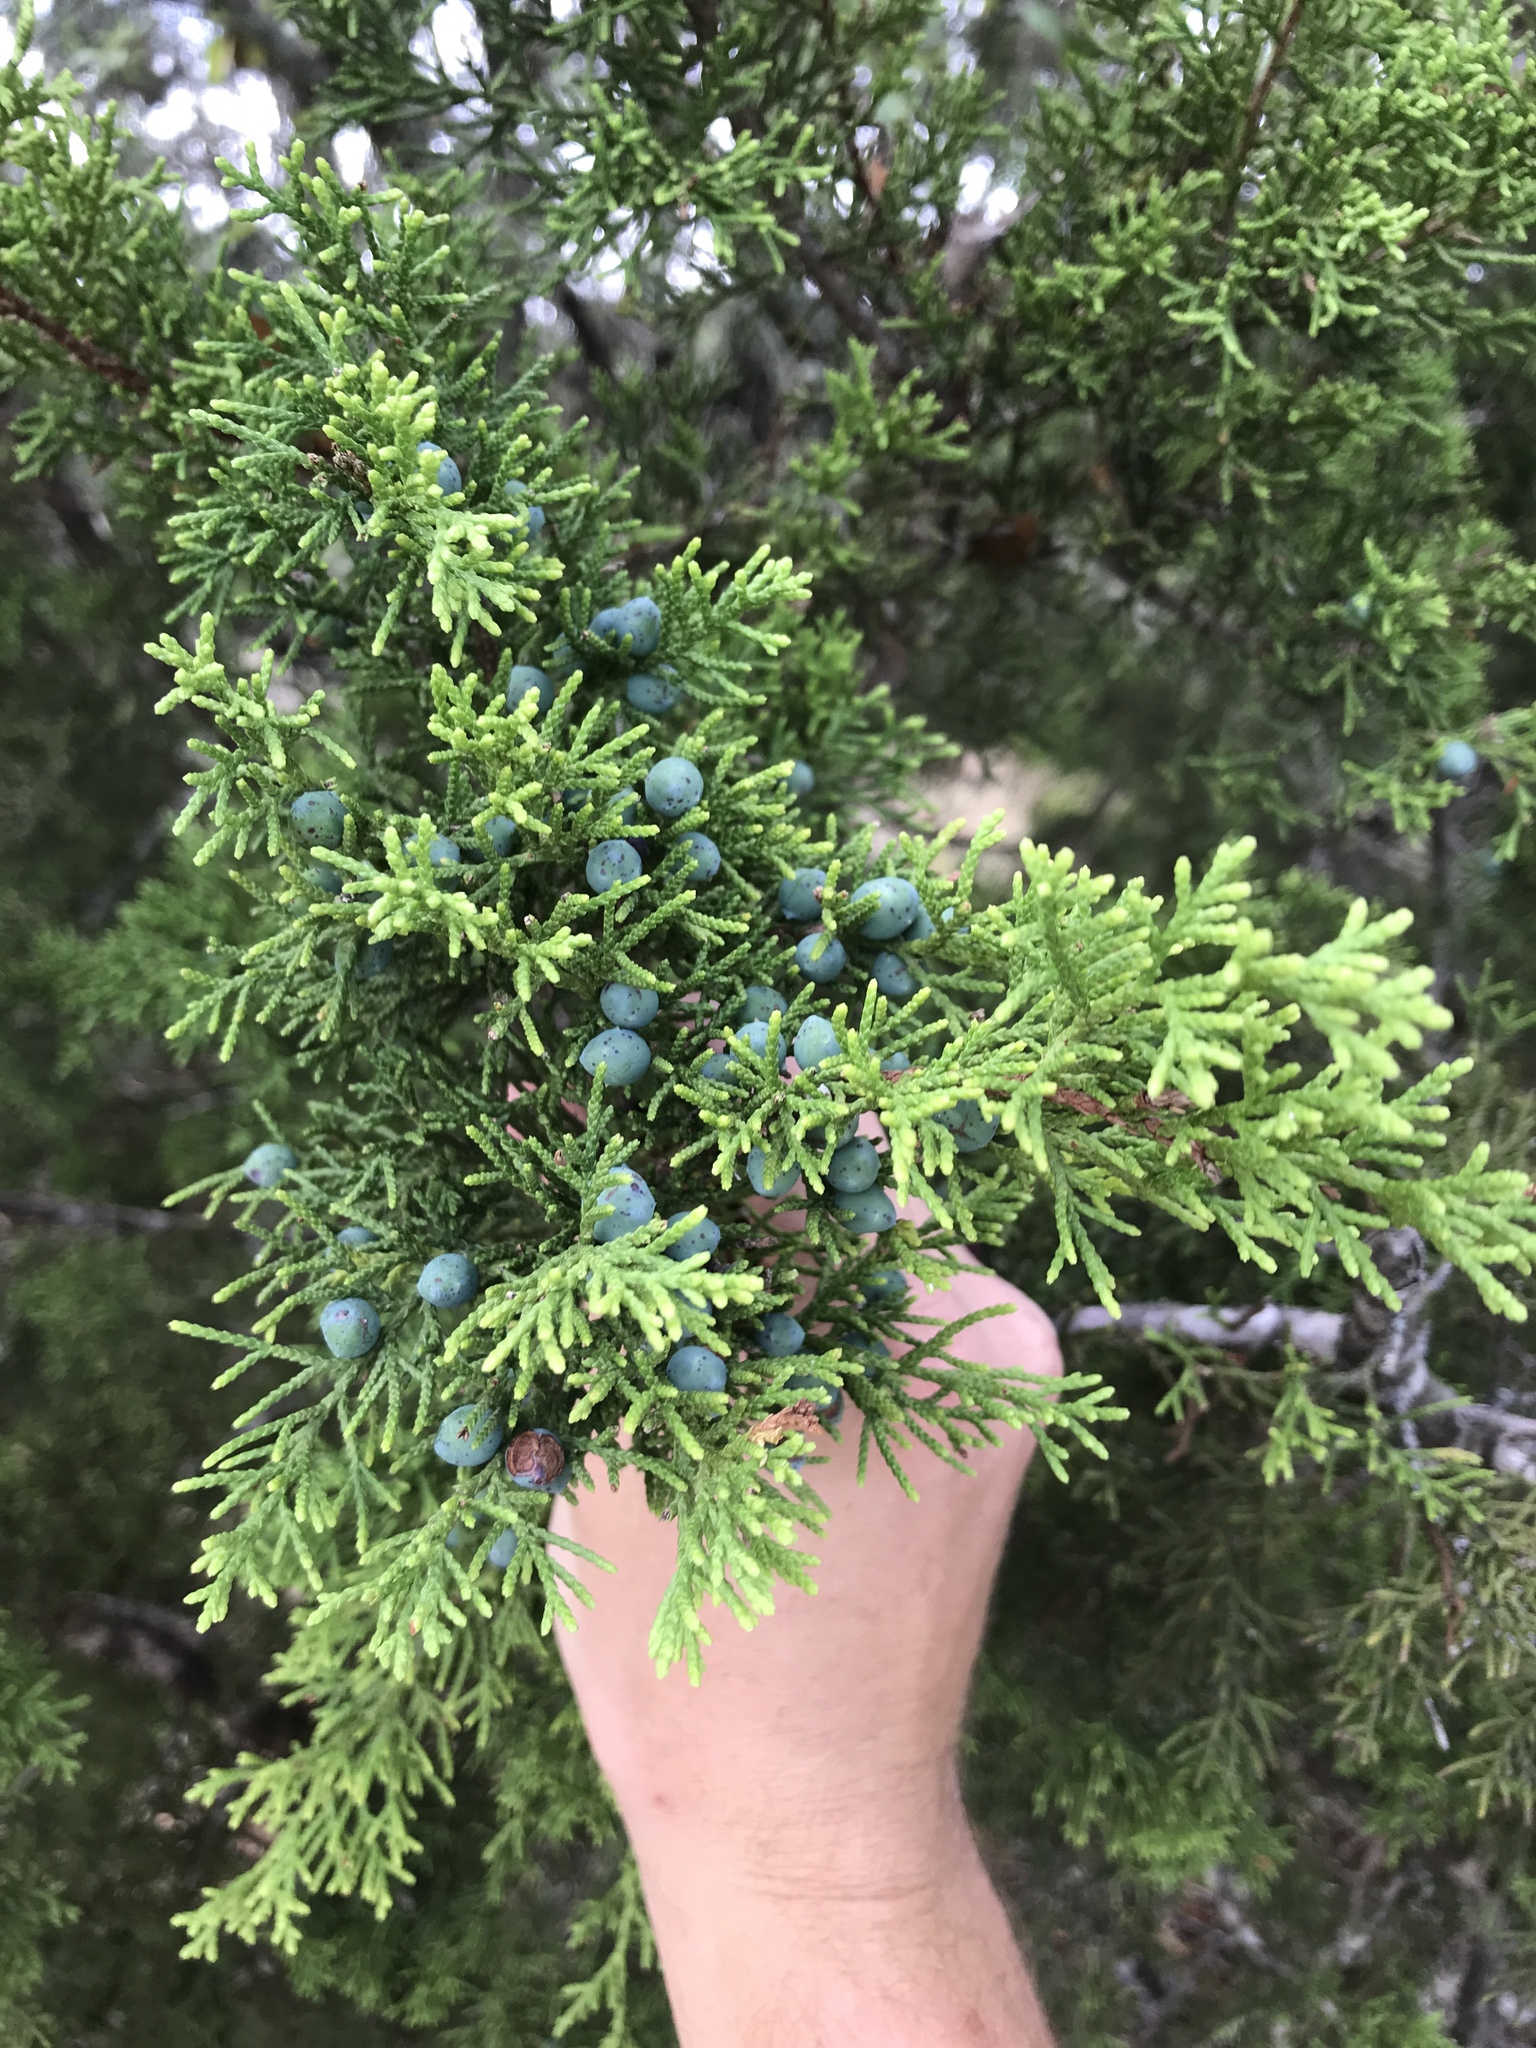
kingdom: Plantae
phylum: Tracheophyta
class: Pinopsida
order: Pinales
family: Cupressaceae
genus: Juniperus
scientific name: Juniperus ashei
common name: Mexican juniper
